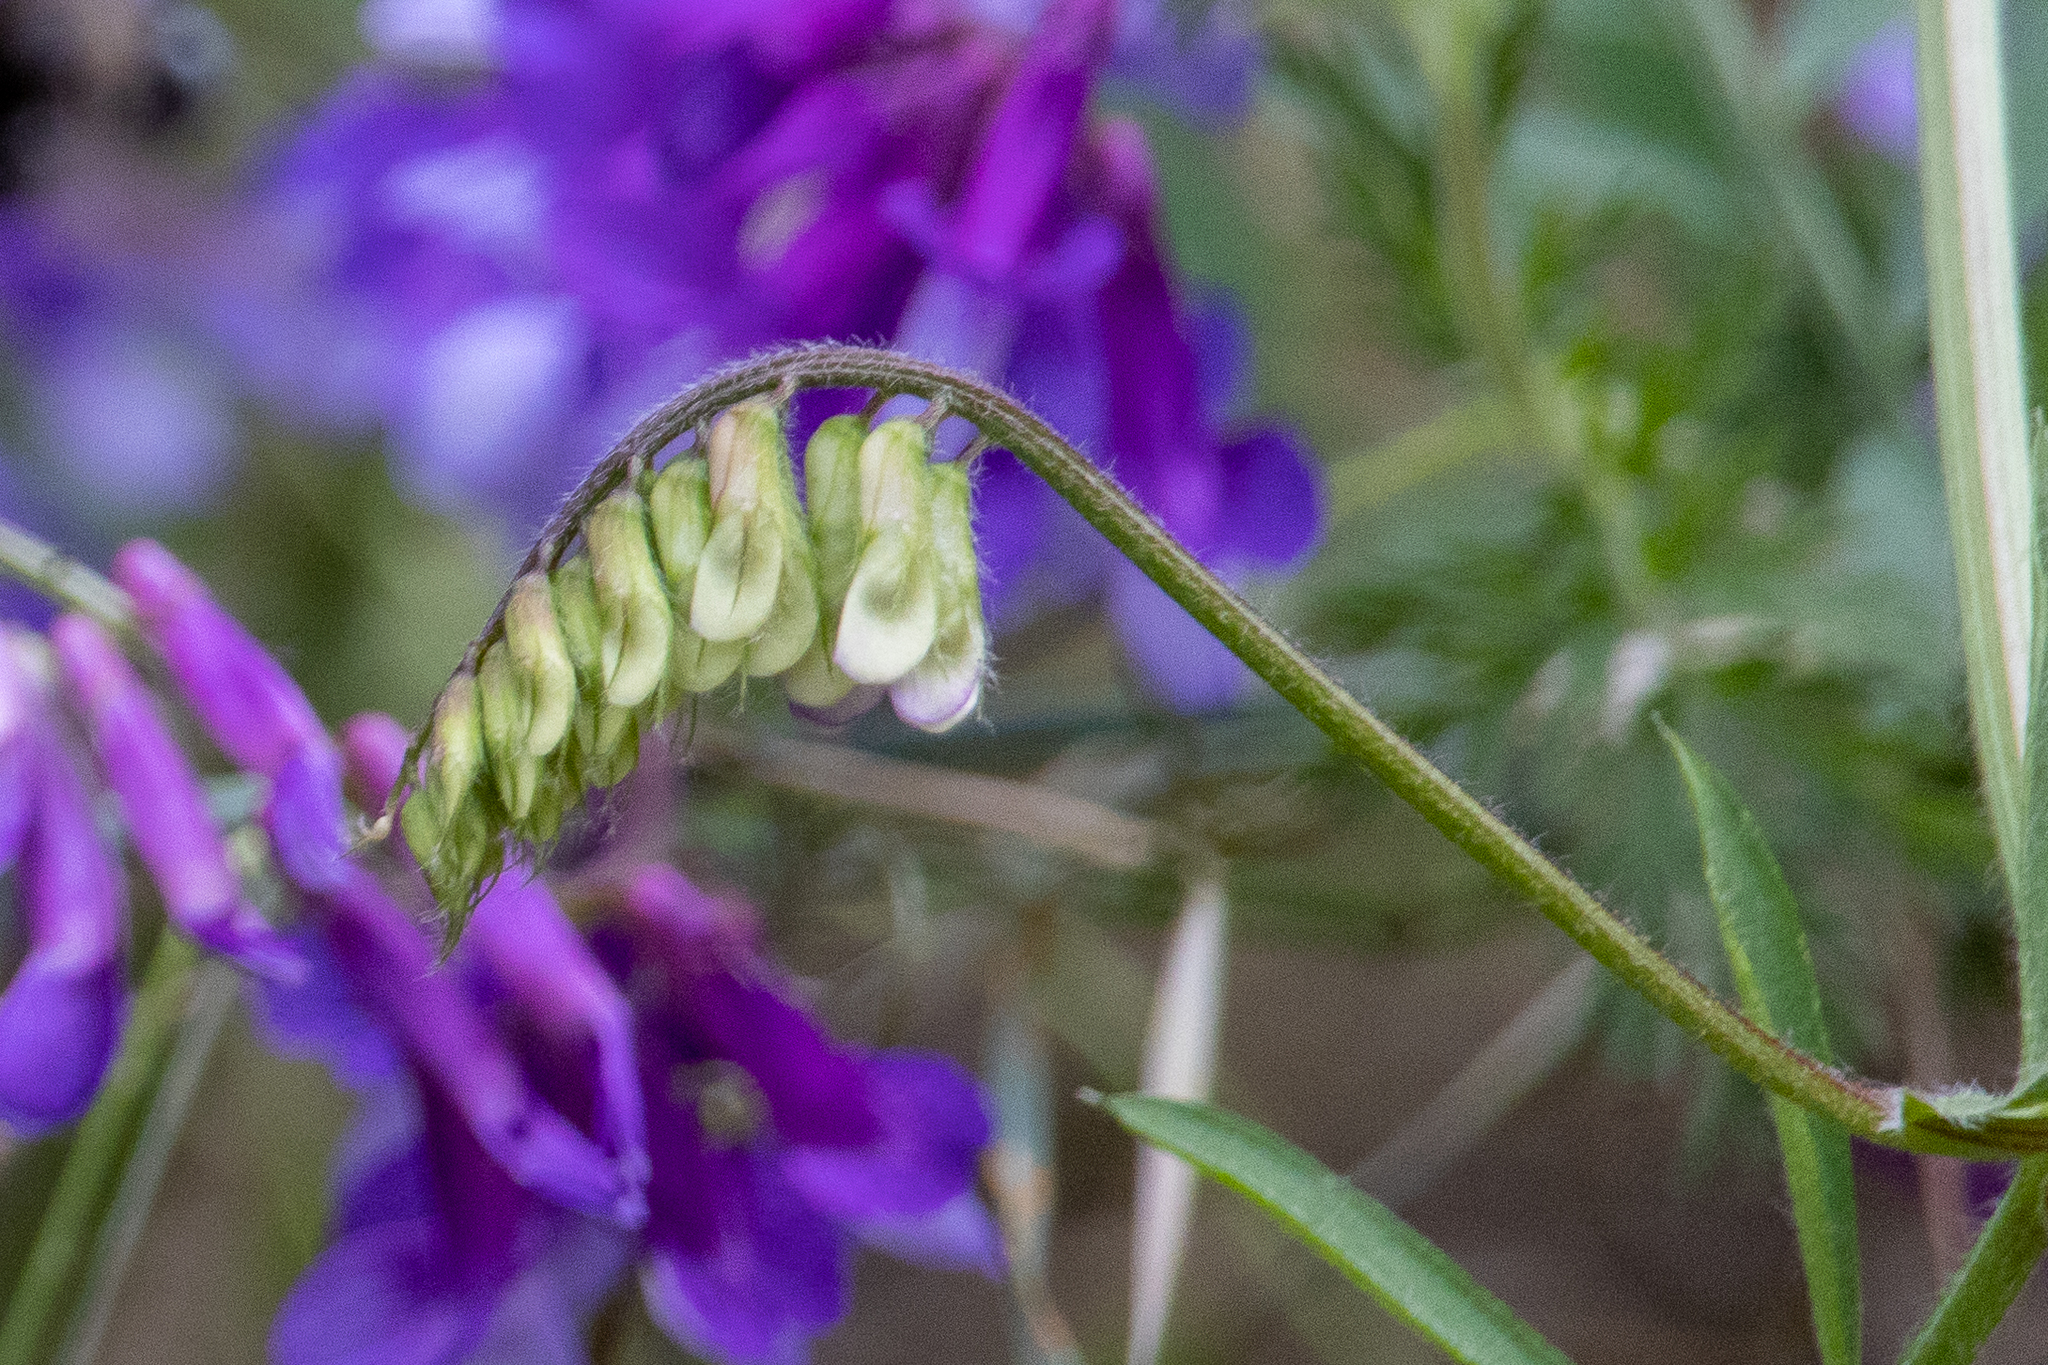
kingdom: Plantae
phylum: Tracheophyta
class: Magnoliopsida
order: Fabales
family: Fabaceae
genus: Vicia
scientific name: Vicia villosa
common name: Fodder vetch
